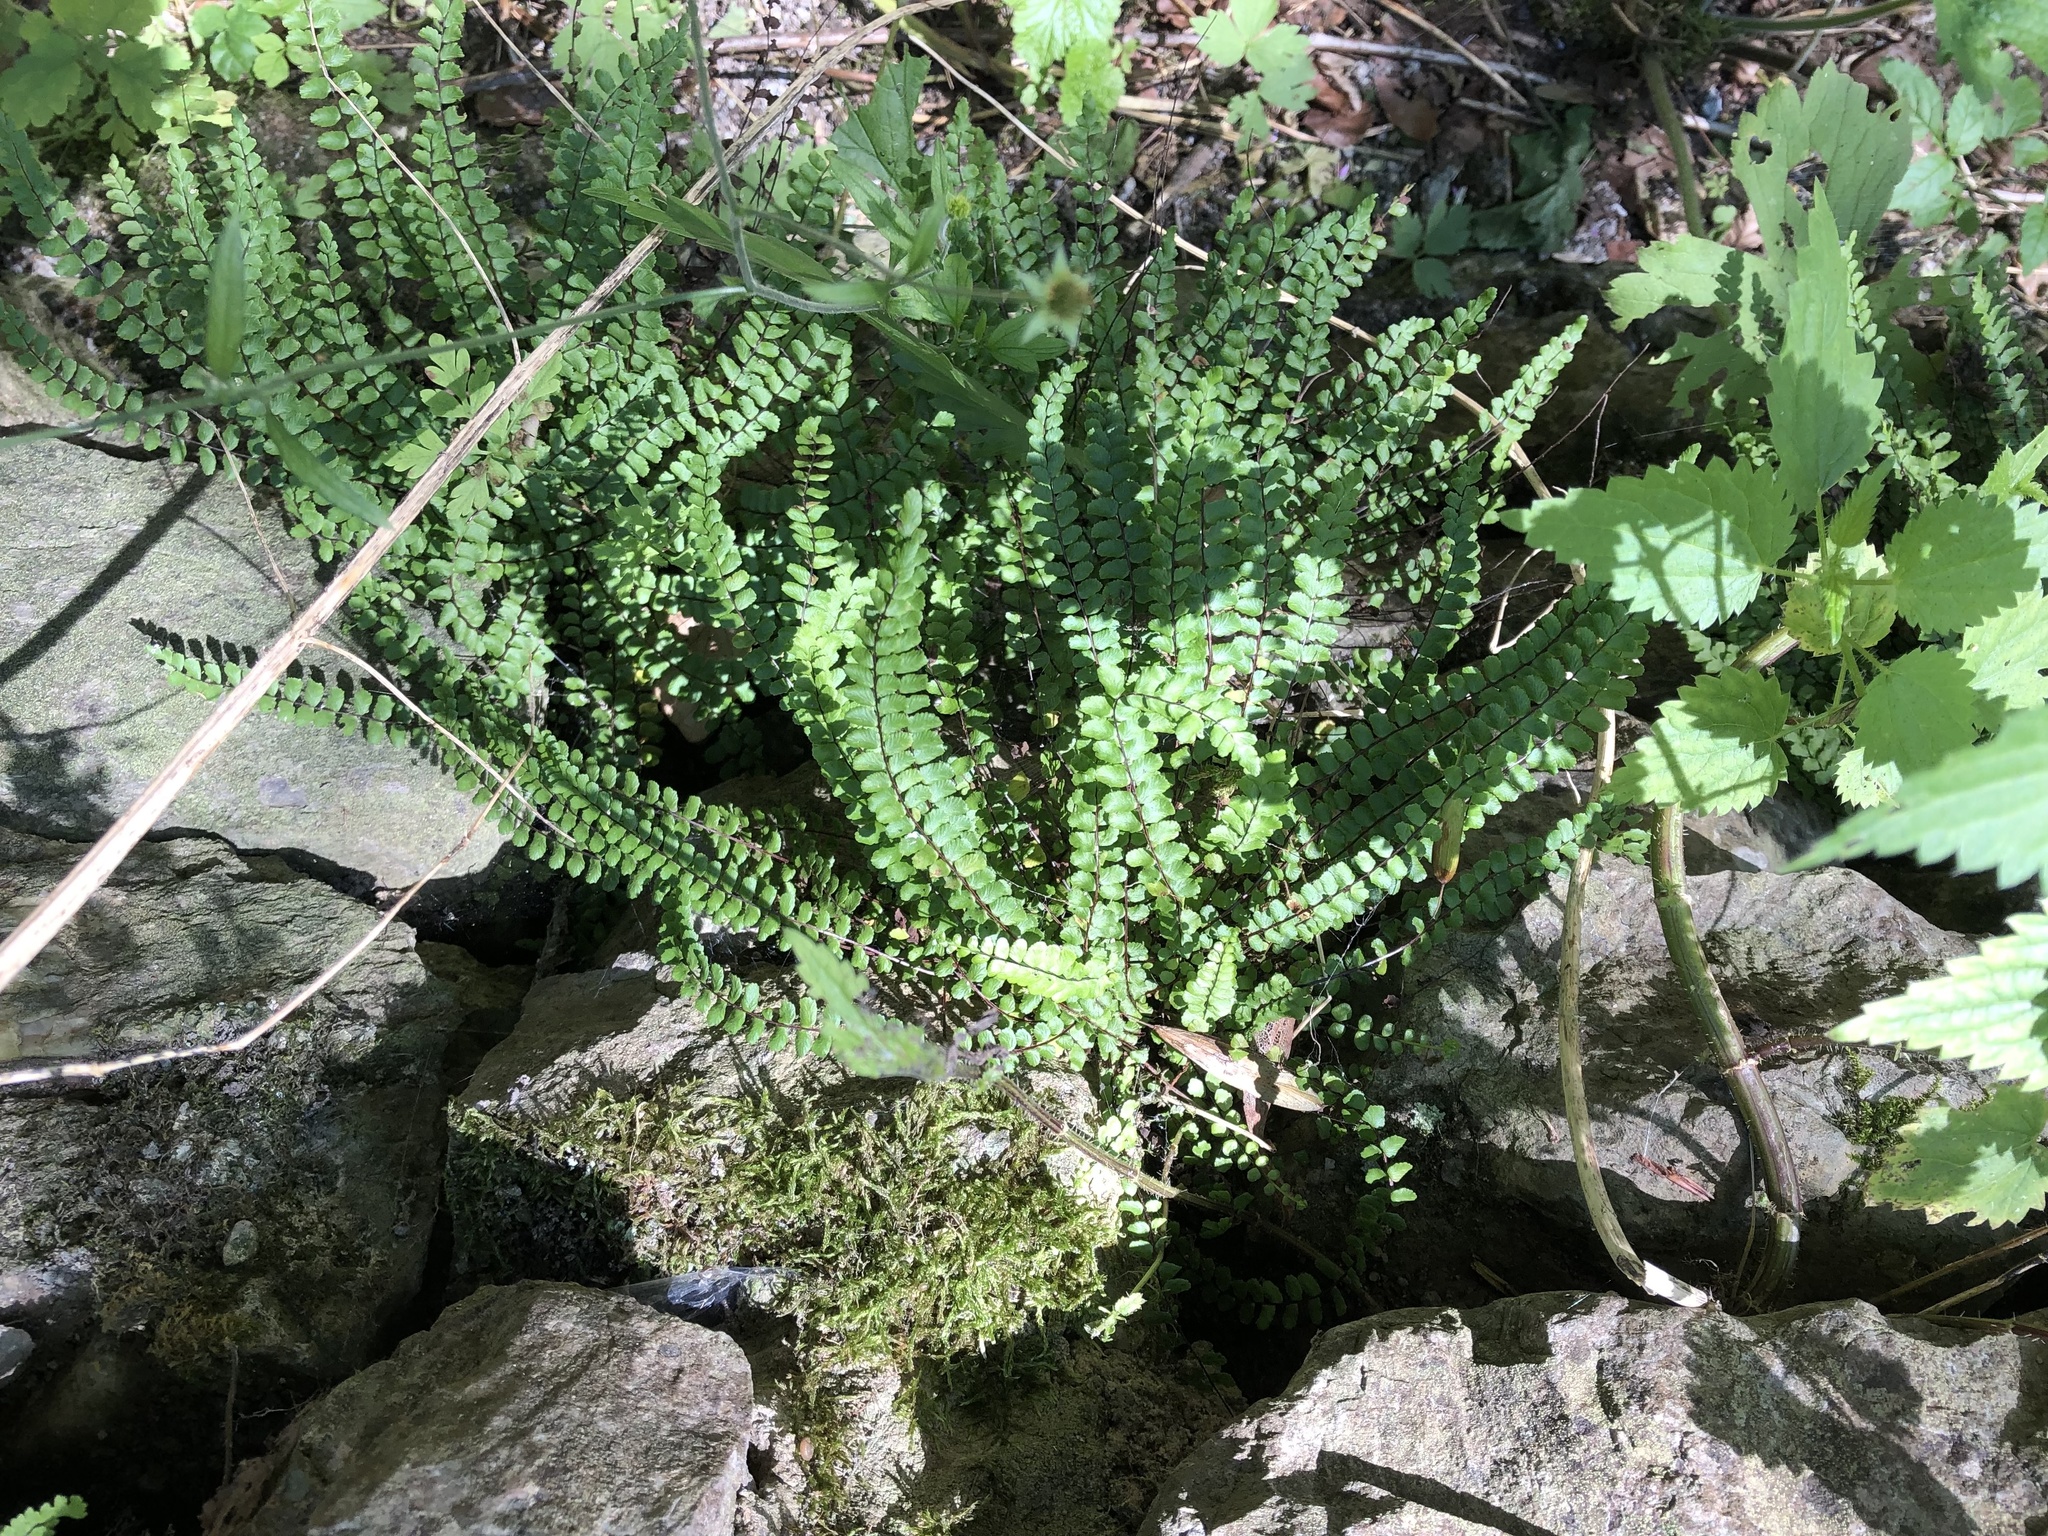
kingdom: Plantae
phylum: Tracheophyta
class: Polypodiopsida
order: Polypodiales
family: Aspleniaceae
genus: Asplenium
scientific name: Asplenium trichomanes
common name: Maidenhair spleenwort
